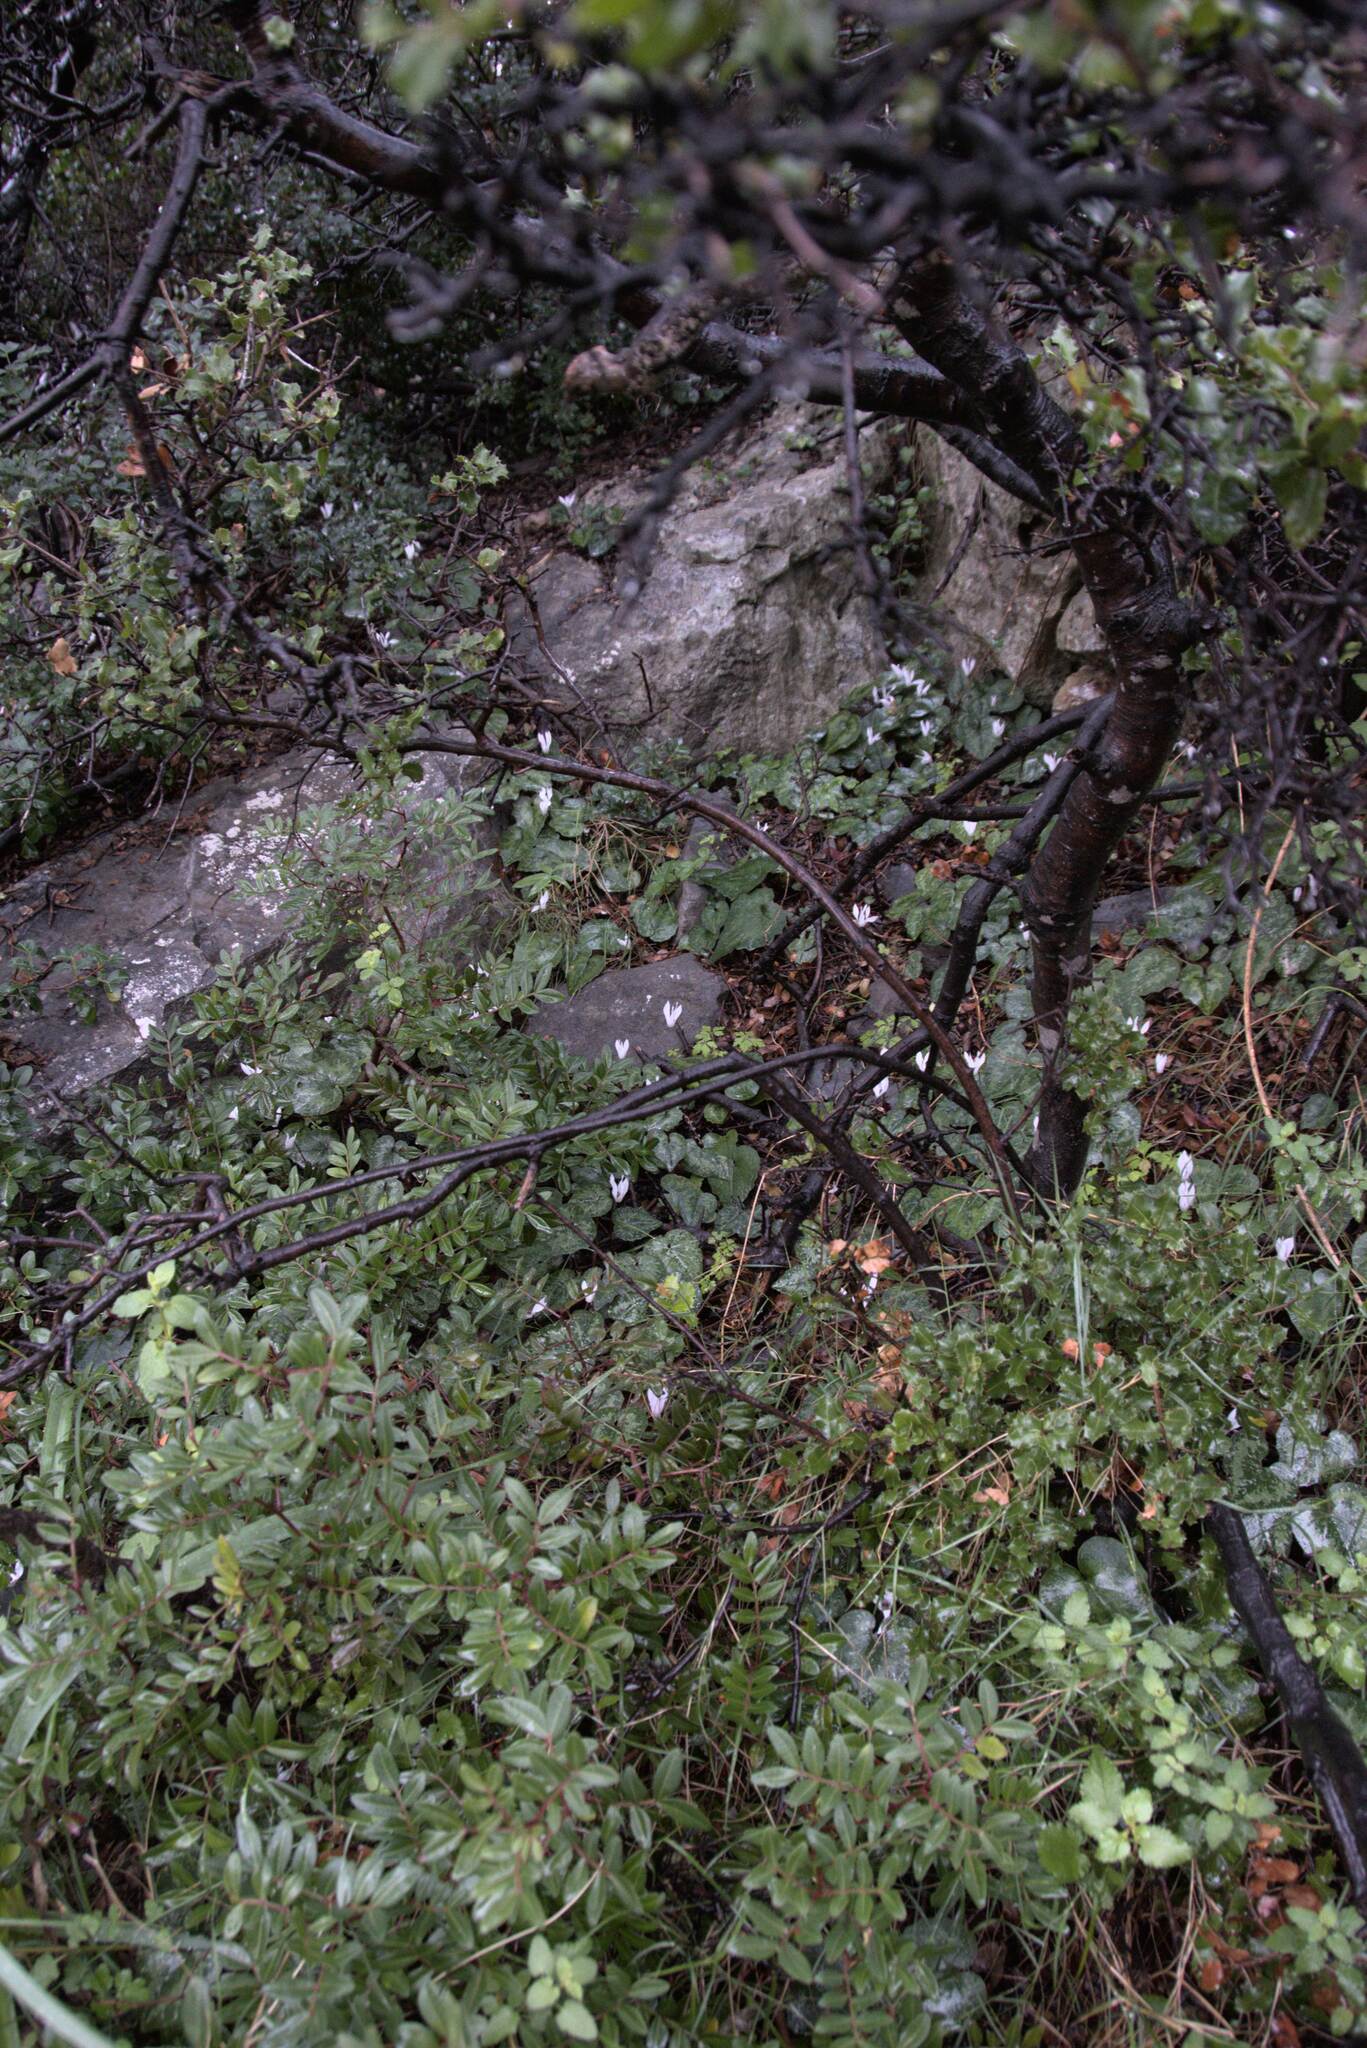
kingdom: Plantae
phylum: Tracheophyta
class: Magnoliopsida
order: Ericales
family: Primulaceae
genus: Cyclamen
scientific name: Cyclamen creticum
